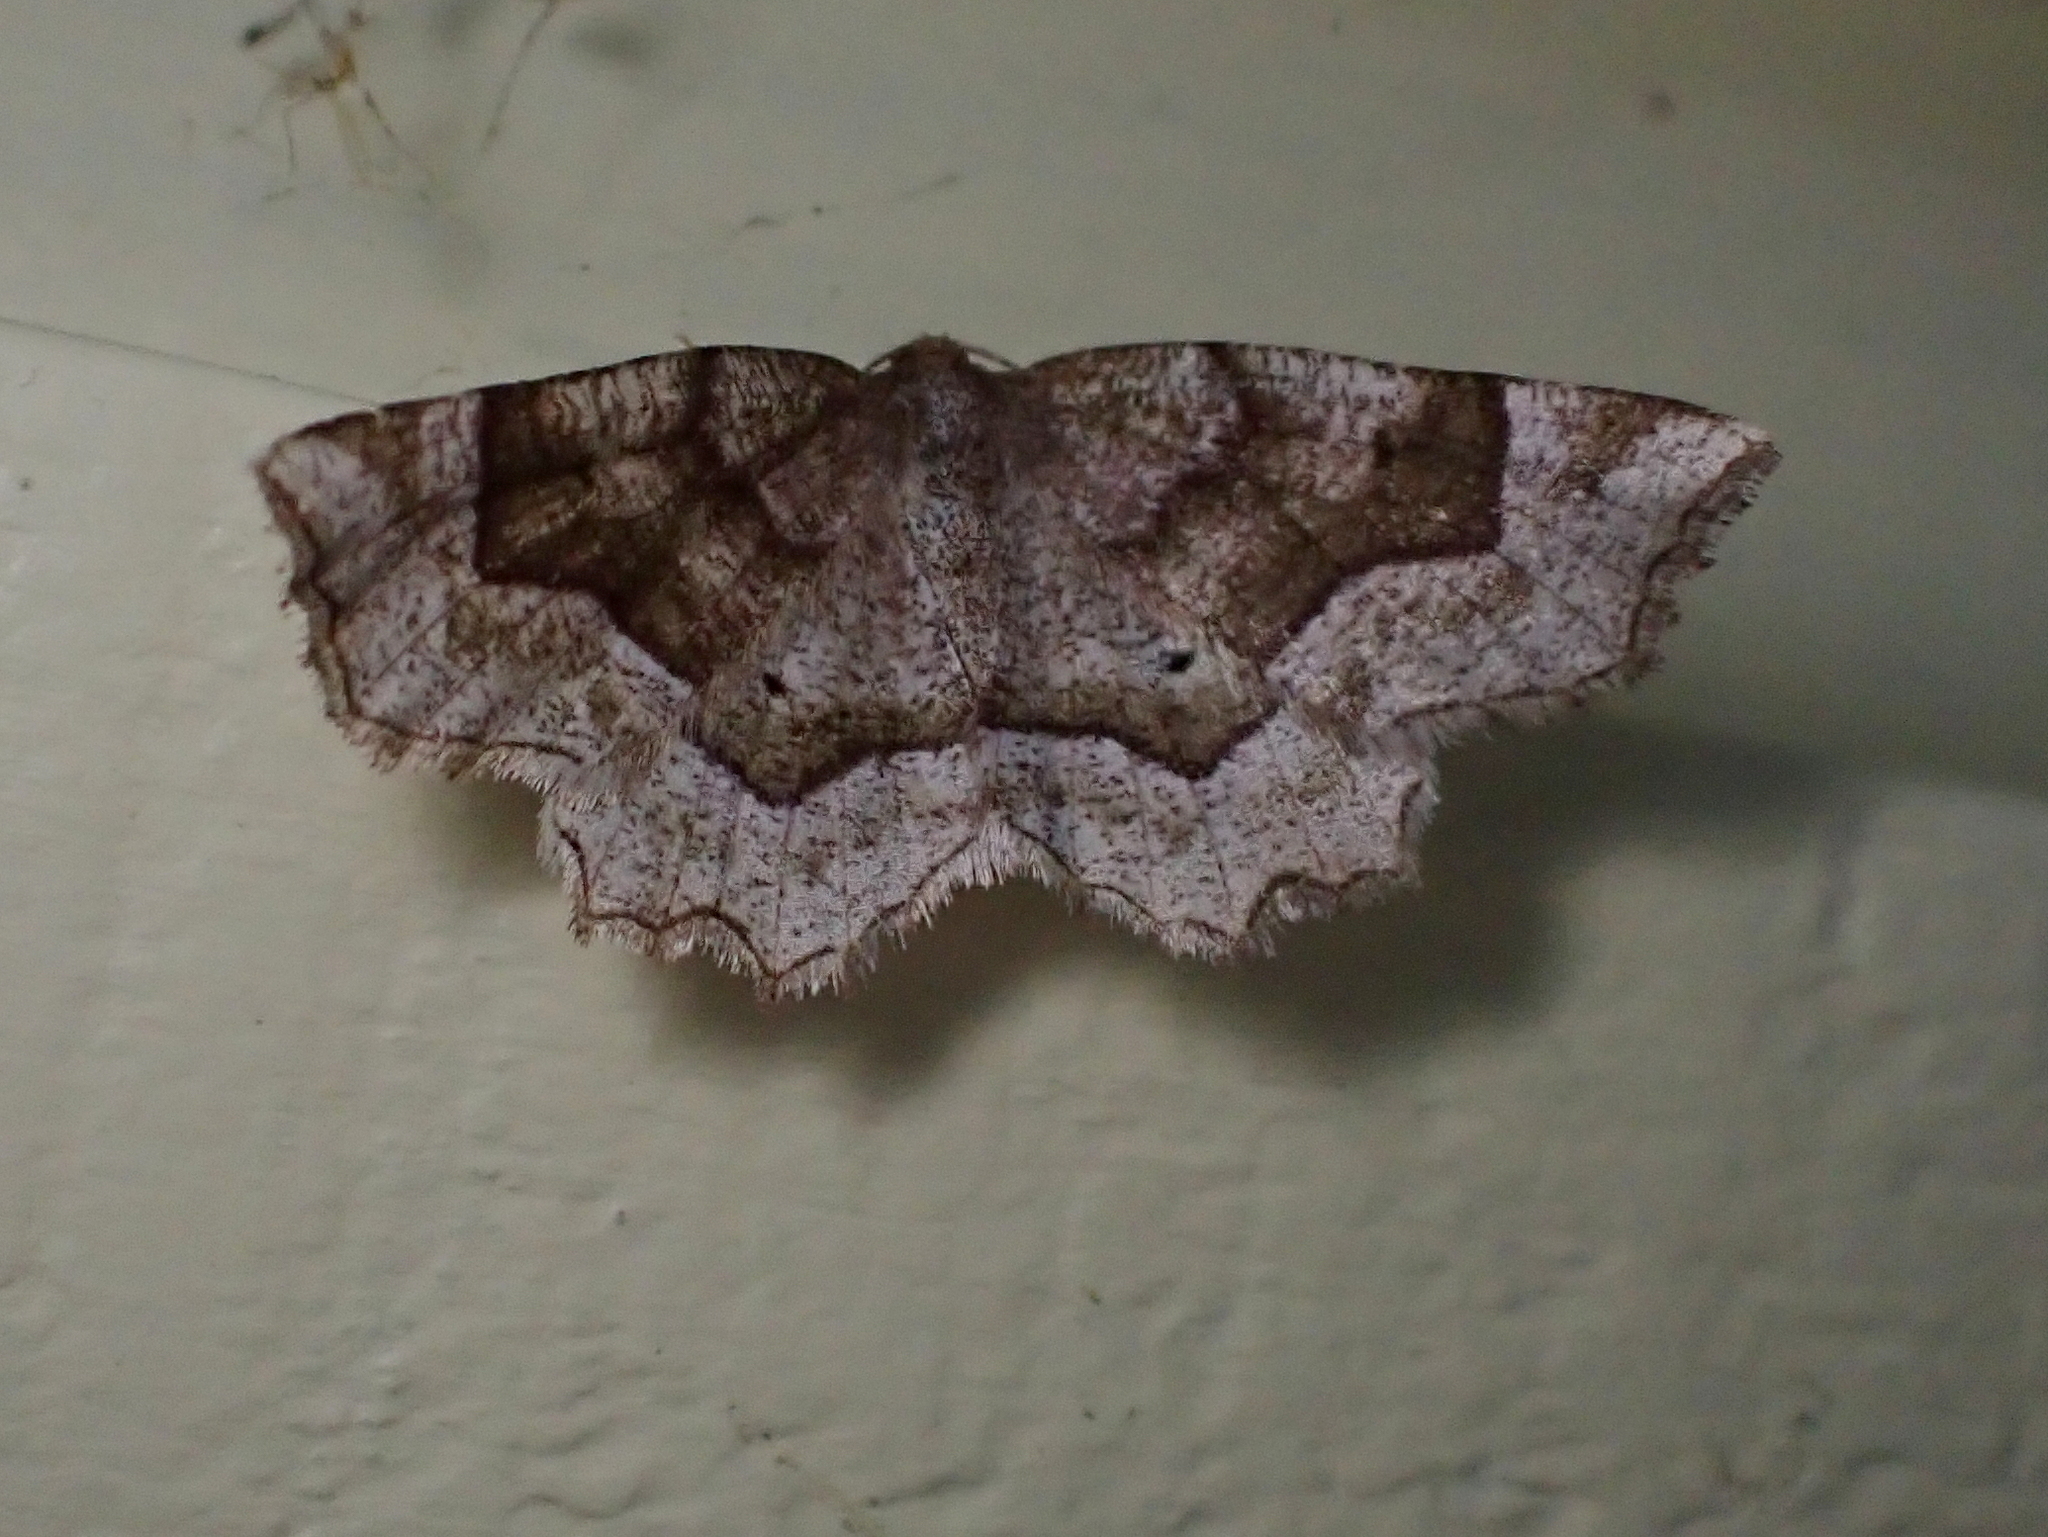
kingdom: Animalia
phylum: Arthropoda
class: Insecta
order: Lepidoptera
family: Geometridae
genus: Metarranthis
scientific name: Metarranthis refractaria
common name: Refracted metarranthis moth
